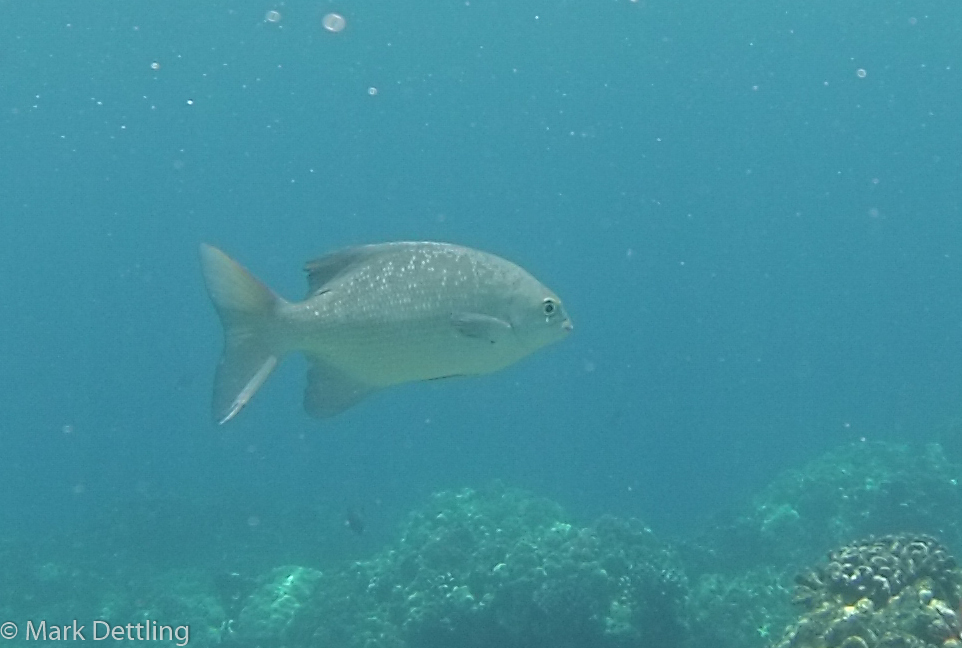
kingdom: Animalia
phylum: Chordata
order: Perciformes
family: Kyphosidae
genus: Kyphosus
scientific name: Kyphosus cinerascens
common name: Topsail drummer
